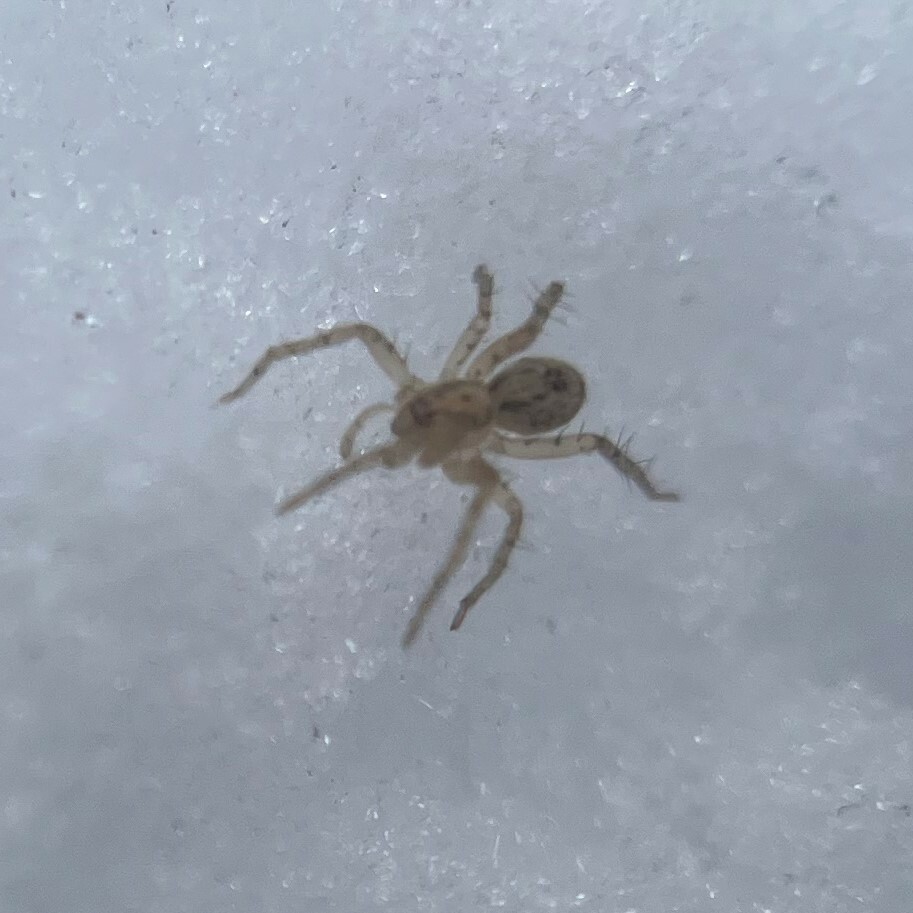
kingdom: Animalia
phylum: Arthropoda
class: Arachnida
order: Araneae
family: Anyphaenidae
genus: Anyphaena
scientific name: Anyphaena accentuata
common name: Buzzing spider
